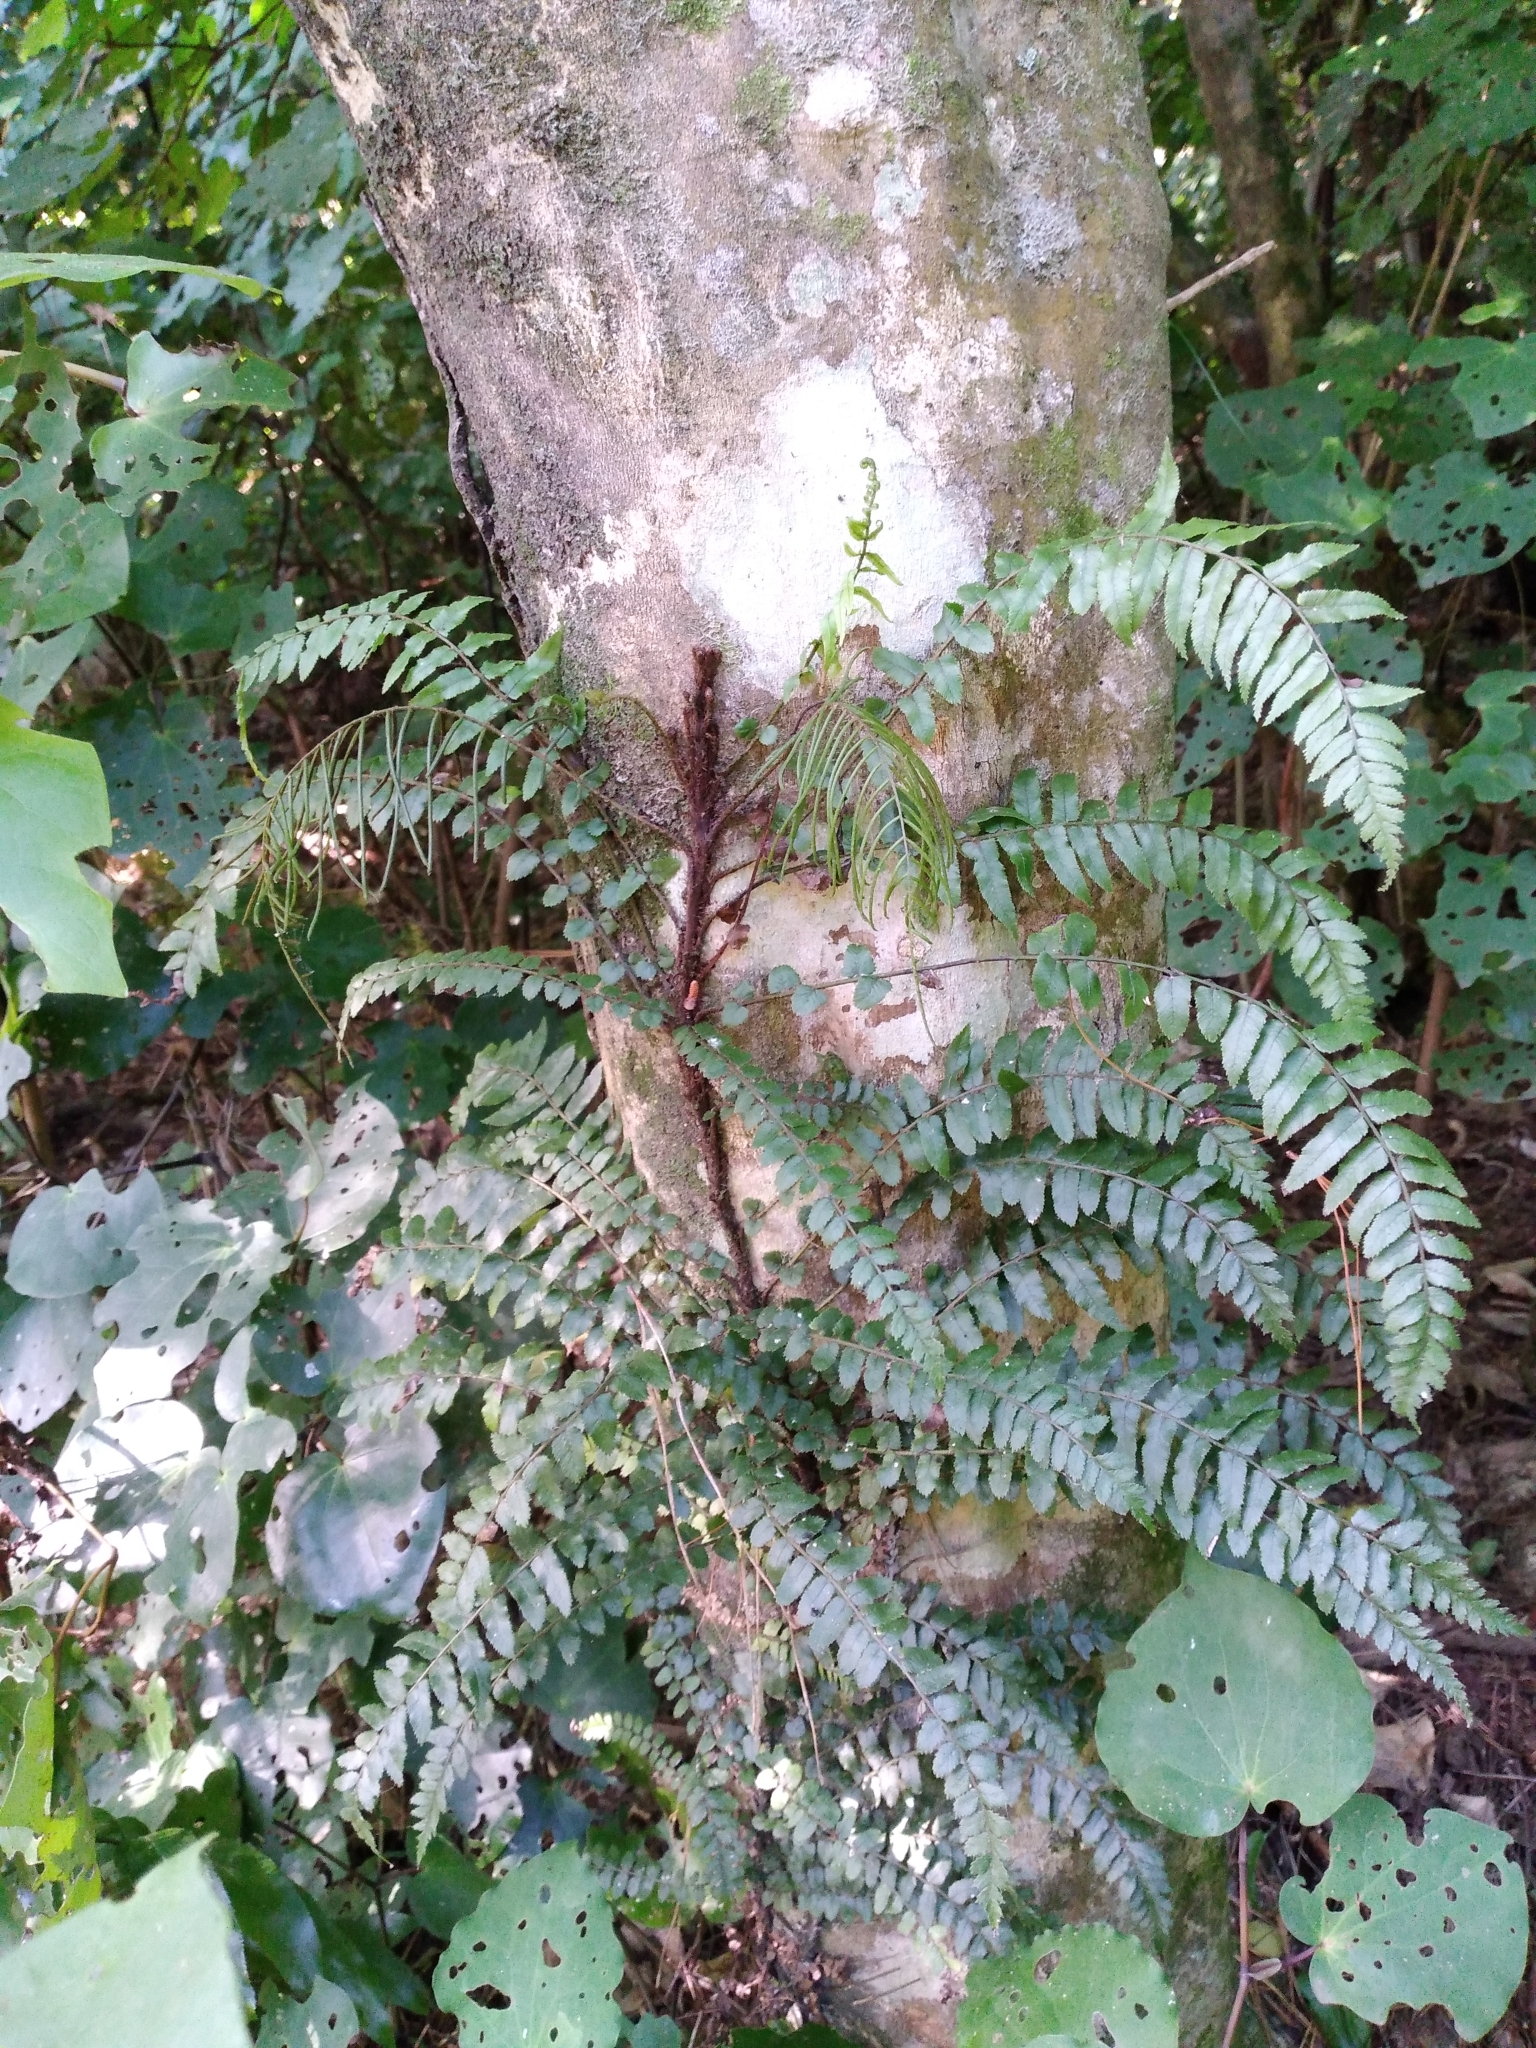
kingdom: Plantae
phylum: Tracheophyta
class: Polypodiopsida
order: Polypodiales
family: Blechnaceae
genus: Icarus
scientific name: Icarus filiformis
